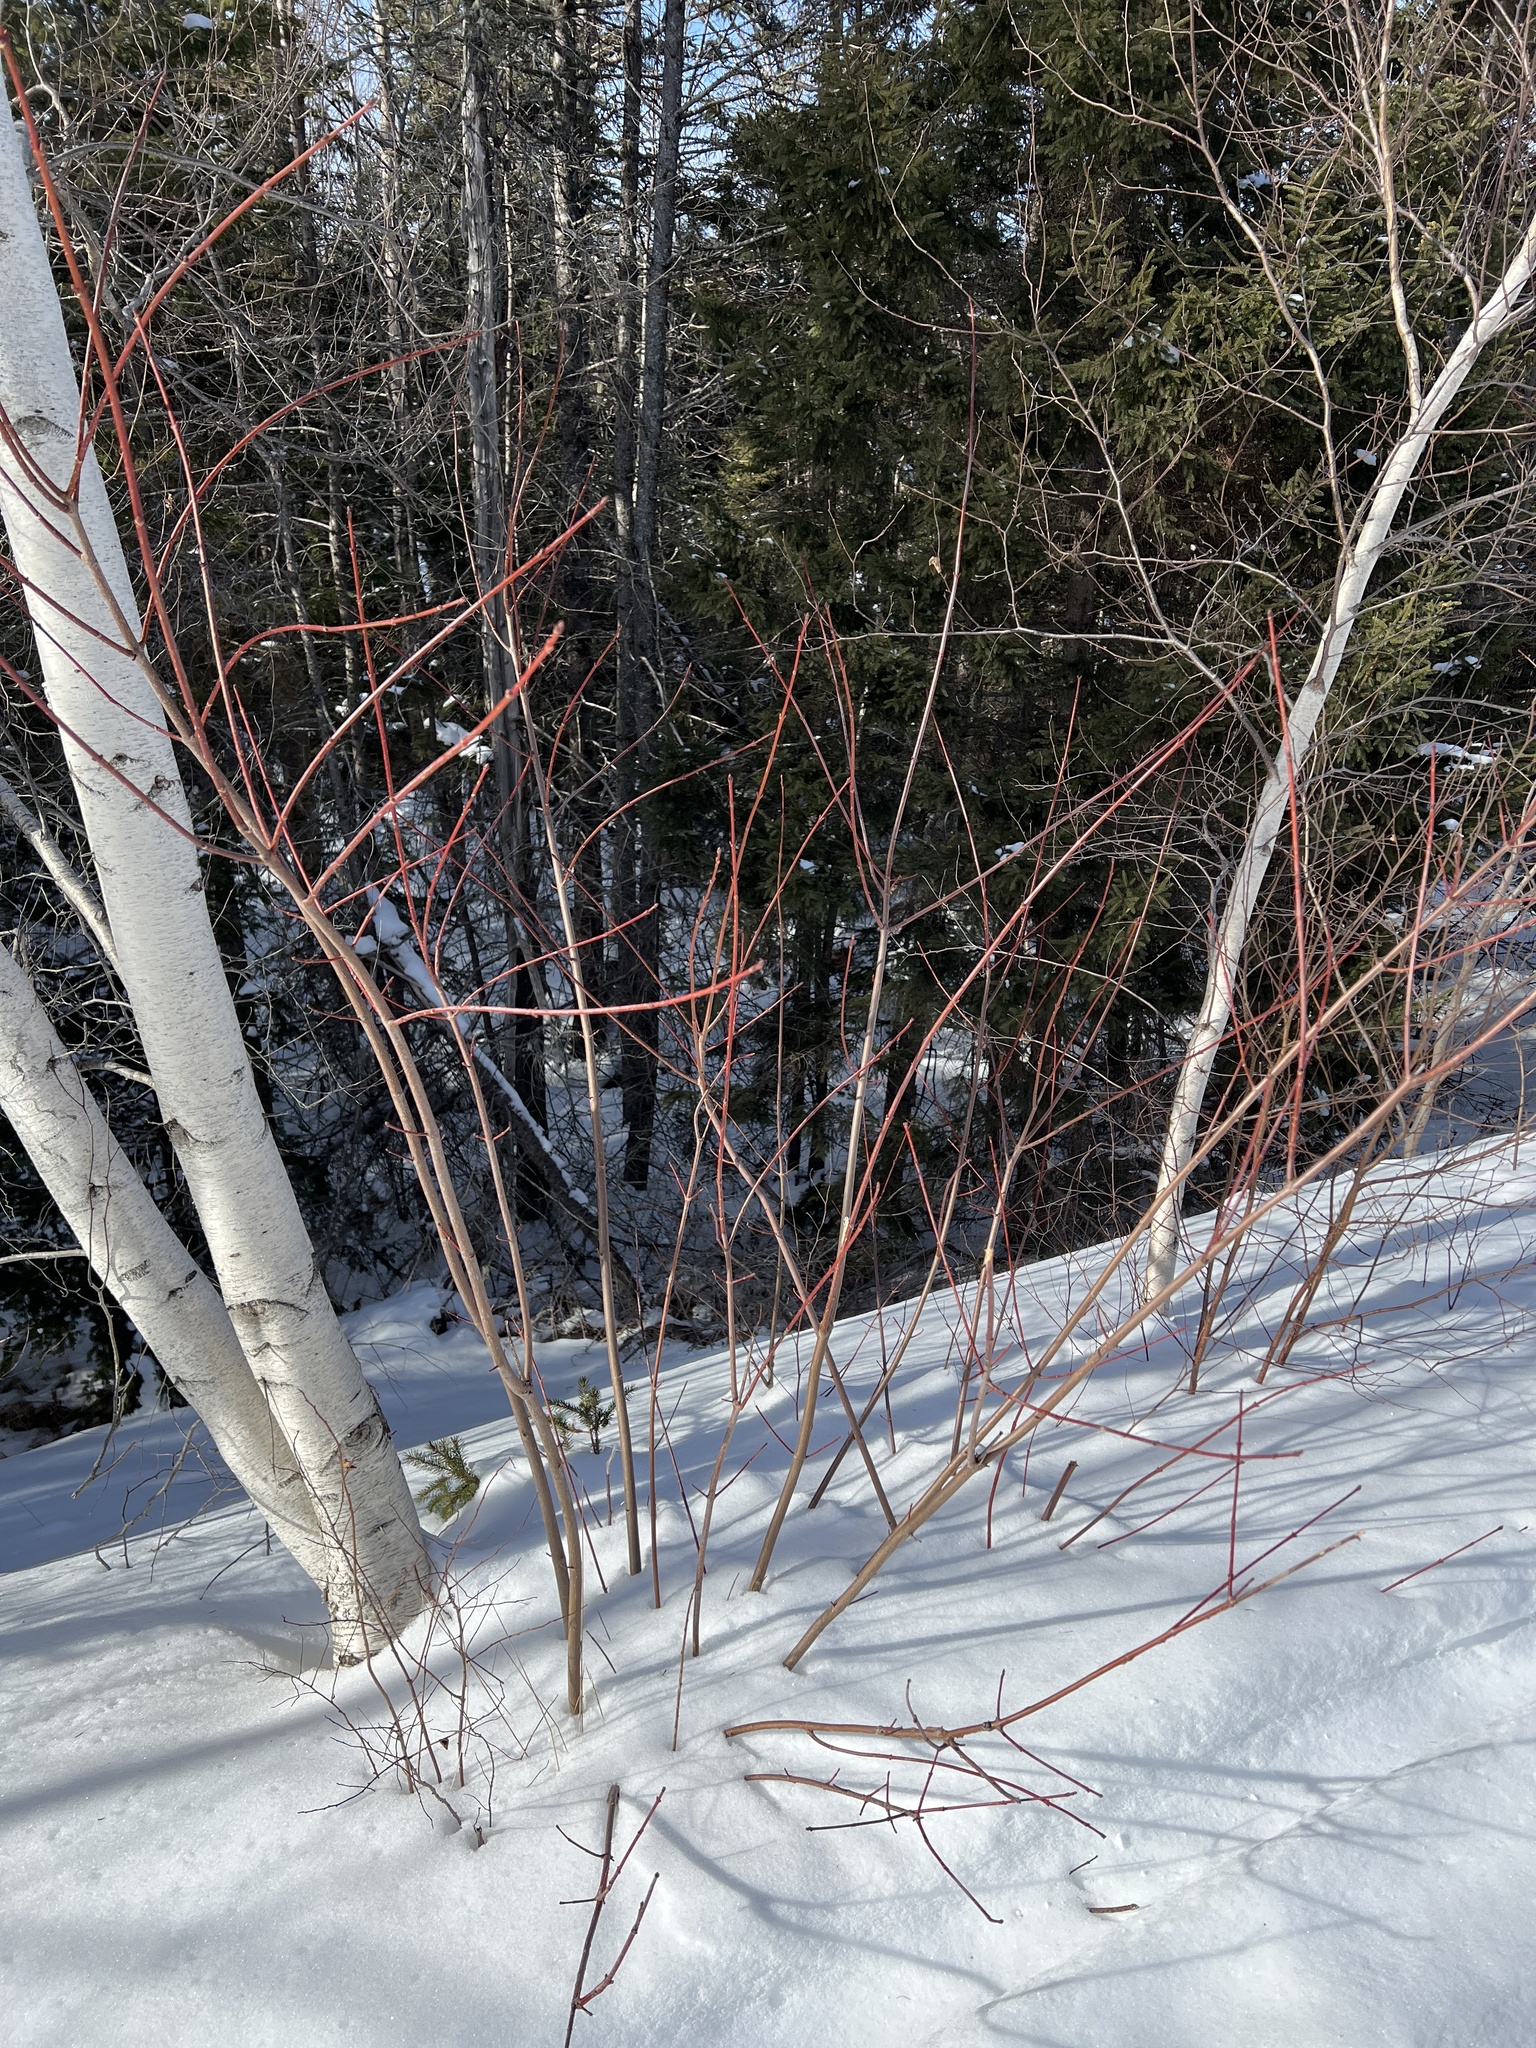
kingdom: Plantae
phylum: Tracheophyta
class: Magnoliopsida
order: Sapindales
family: Sapindaceae
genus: Acer
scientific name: Acer rubrum
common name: Red maple
